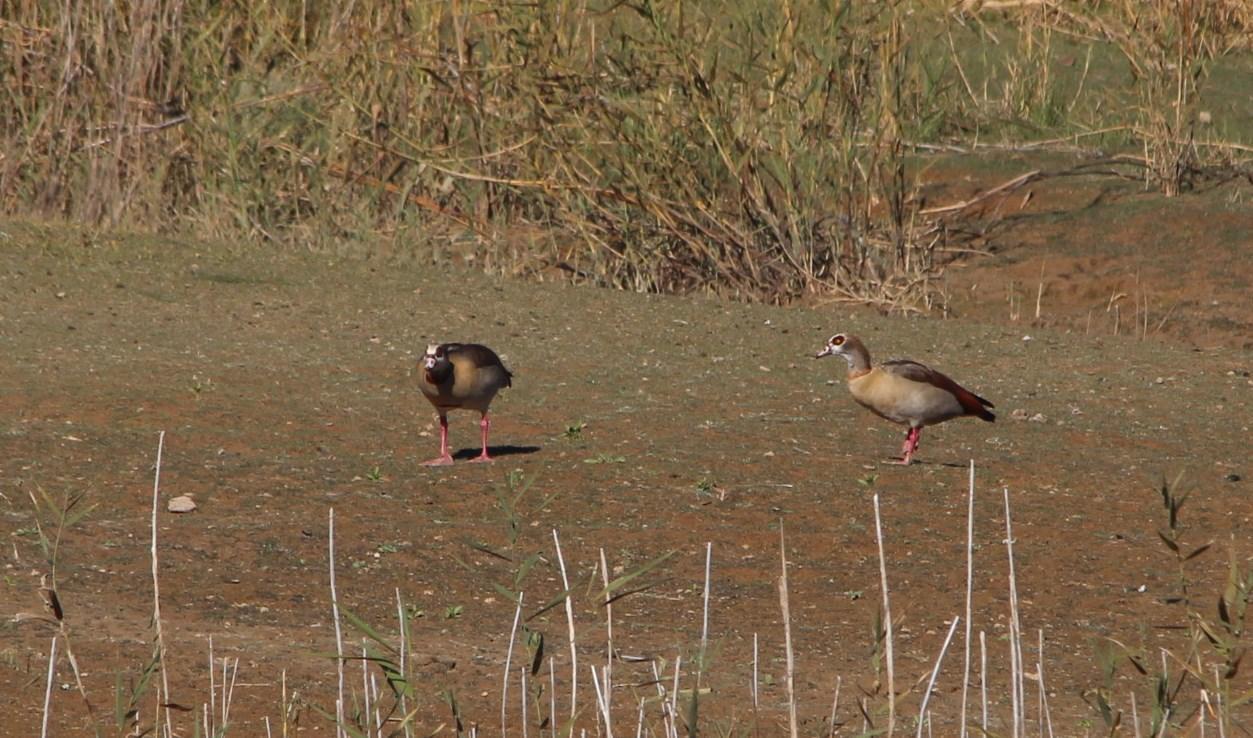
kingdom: Animalia
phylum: Chordata
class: Aves
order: Anseriformes
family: Anatidae
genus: Alopochen
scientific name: Alopochen aegyptiaca
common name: Egyptian goose
